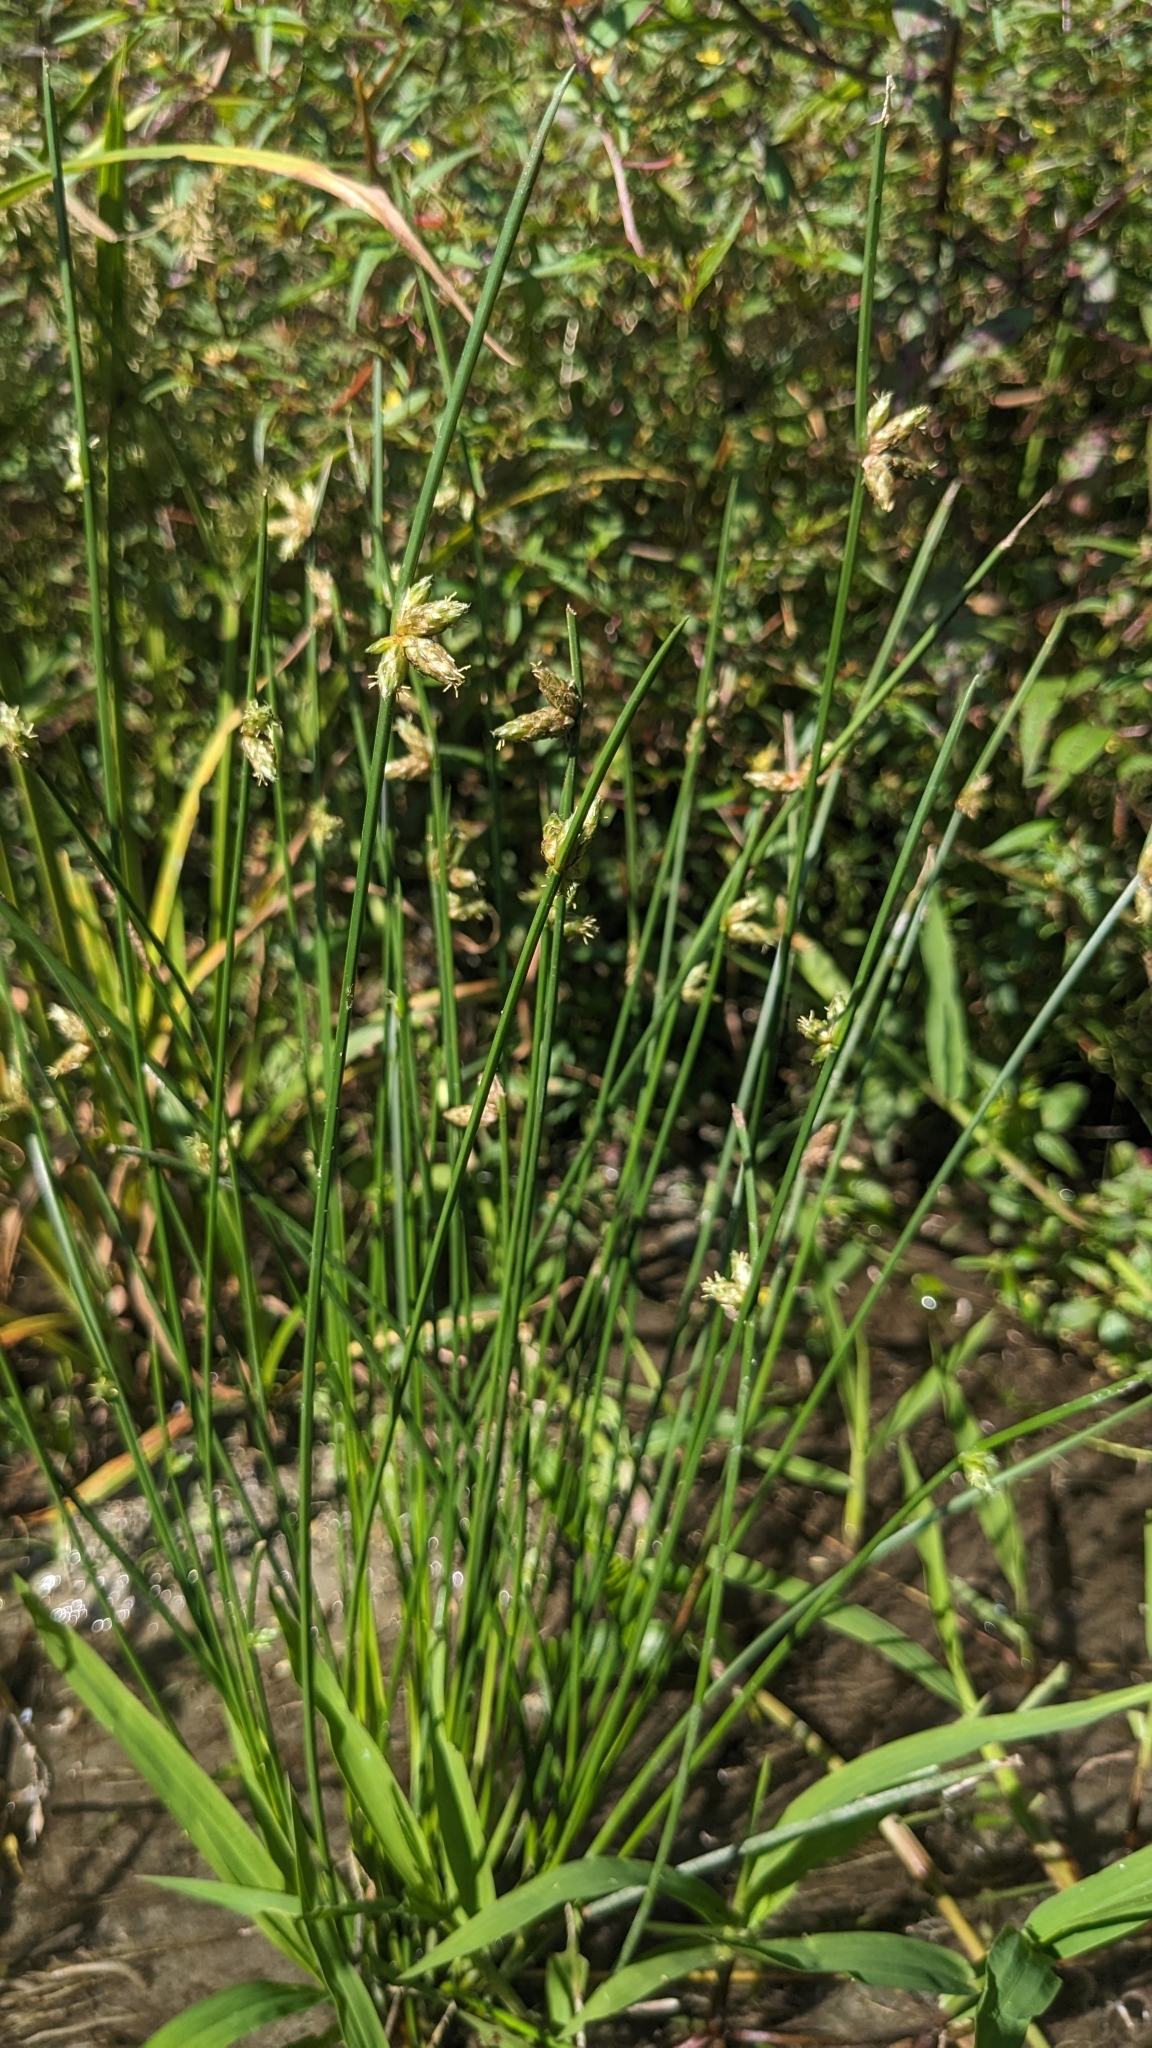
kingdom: Plantae
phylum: Tracheophyta
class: Liliopsida
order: Poales
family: Cyperaceae
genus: Schoenoplectiella
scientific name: Schoenoplectiella juncoides
